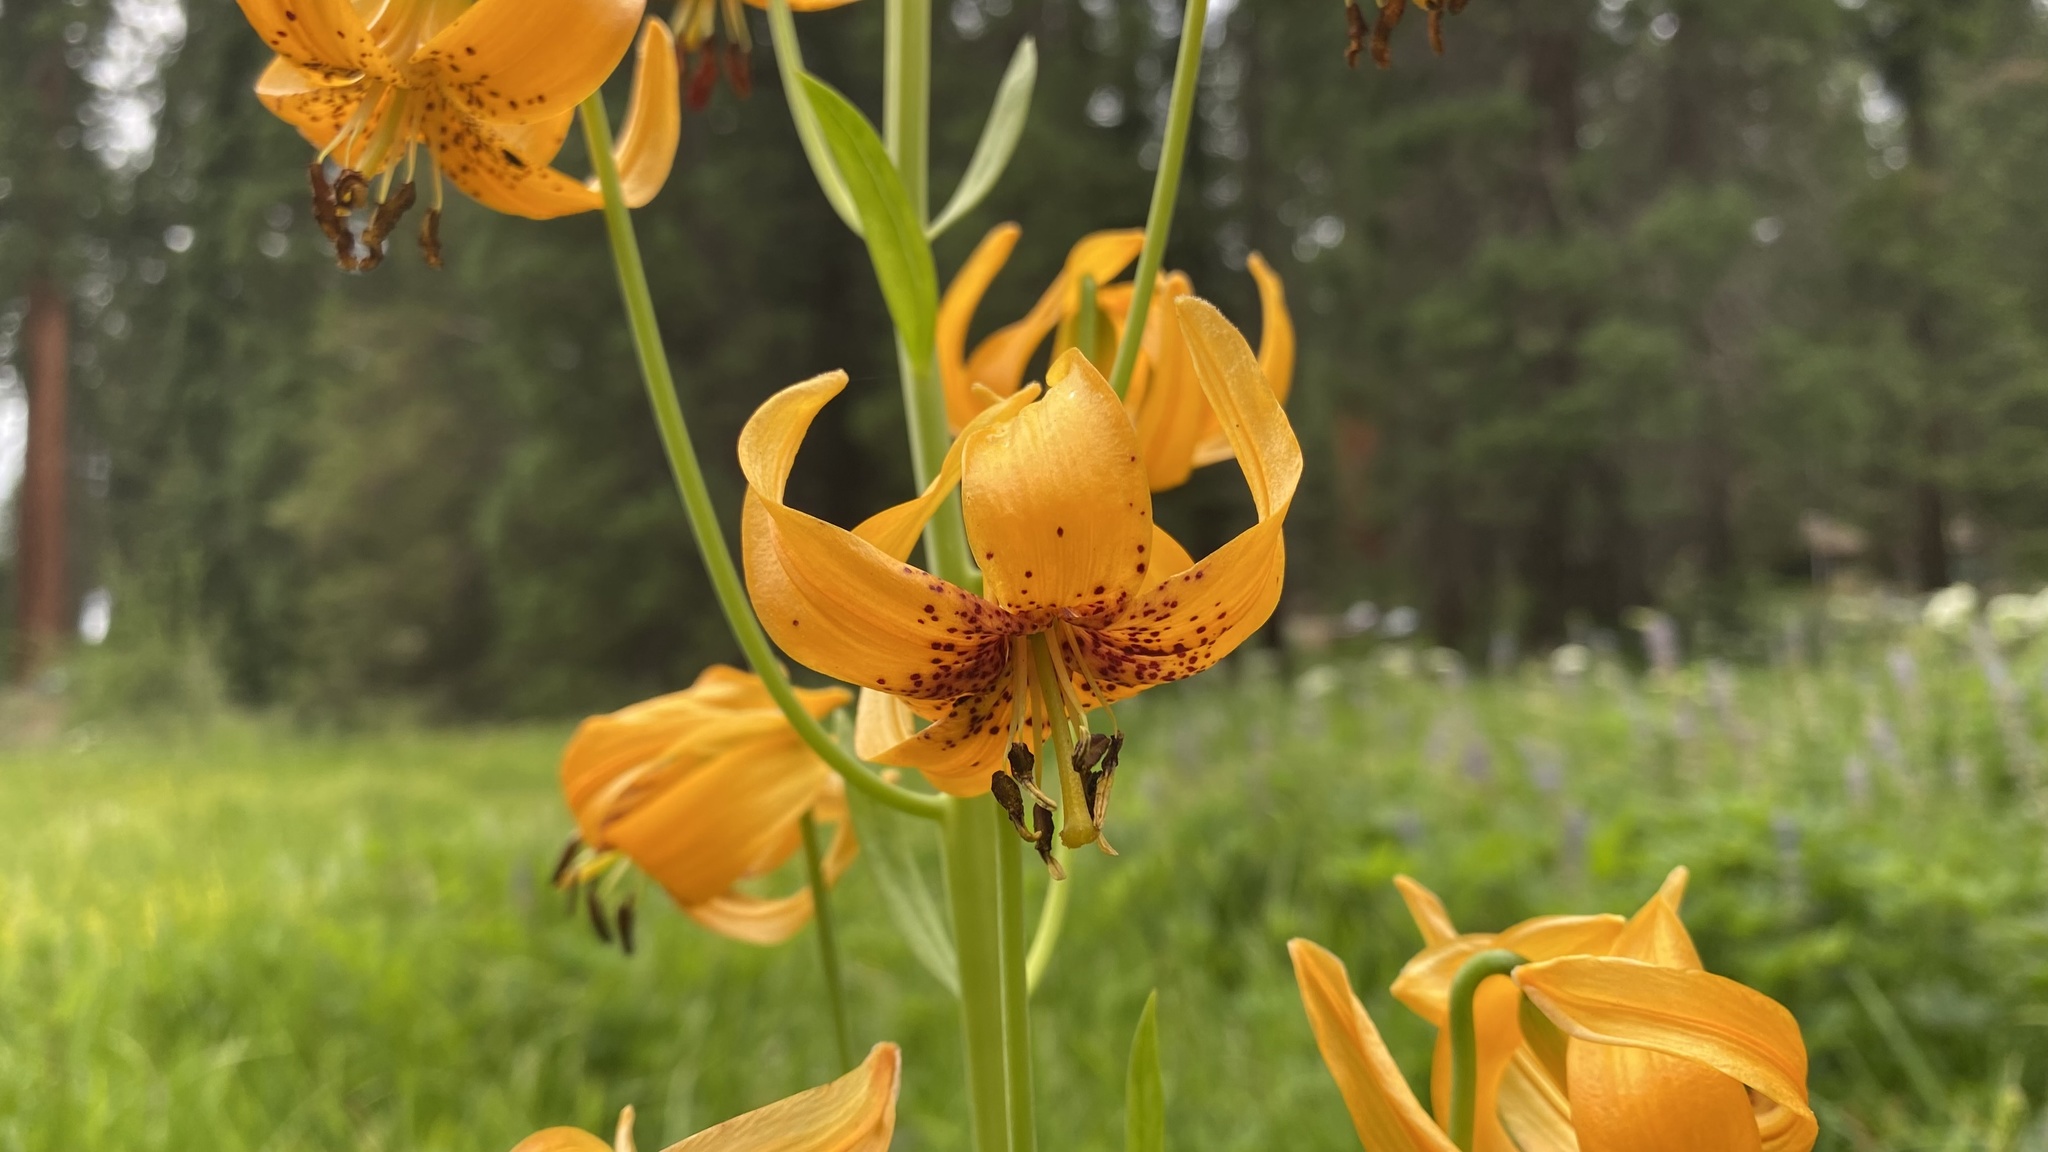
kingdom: Plantae
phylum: Tracheophyta
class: Liliopsida
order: Liliales
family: Liliaceae
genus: Lilium
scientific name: Lilium kelleyanum
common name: Kelley's lily
